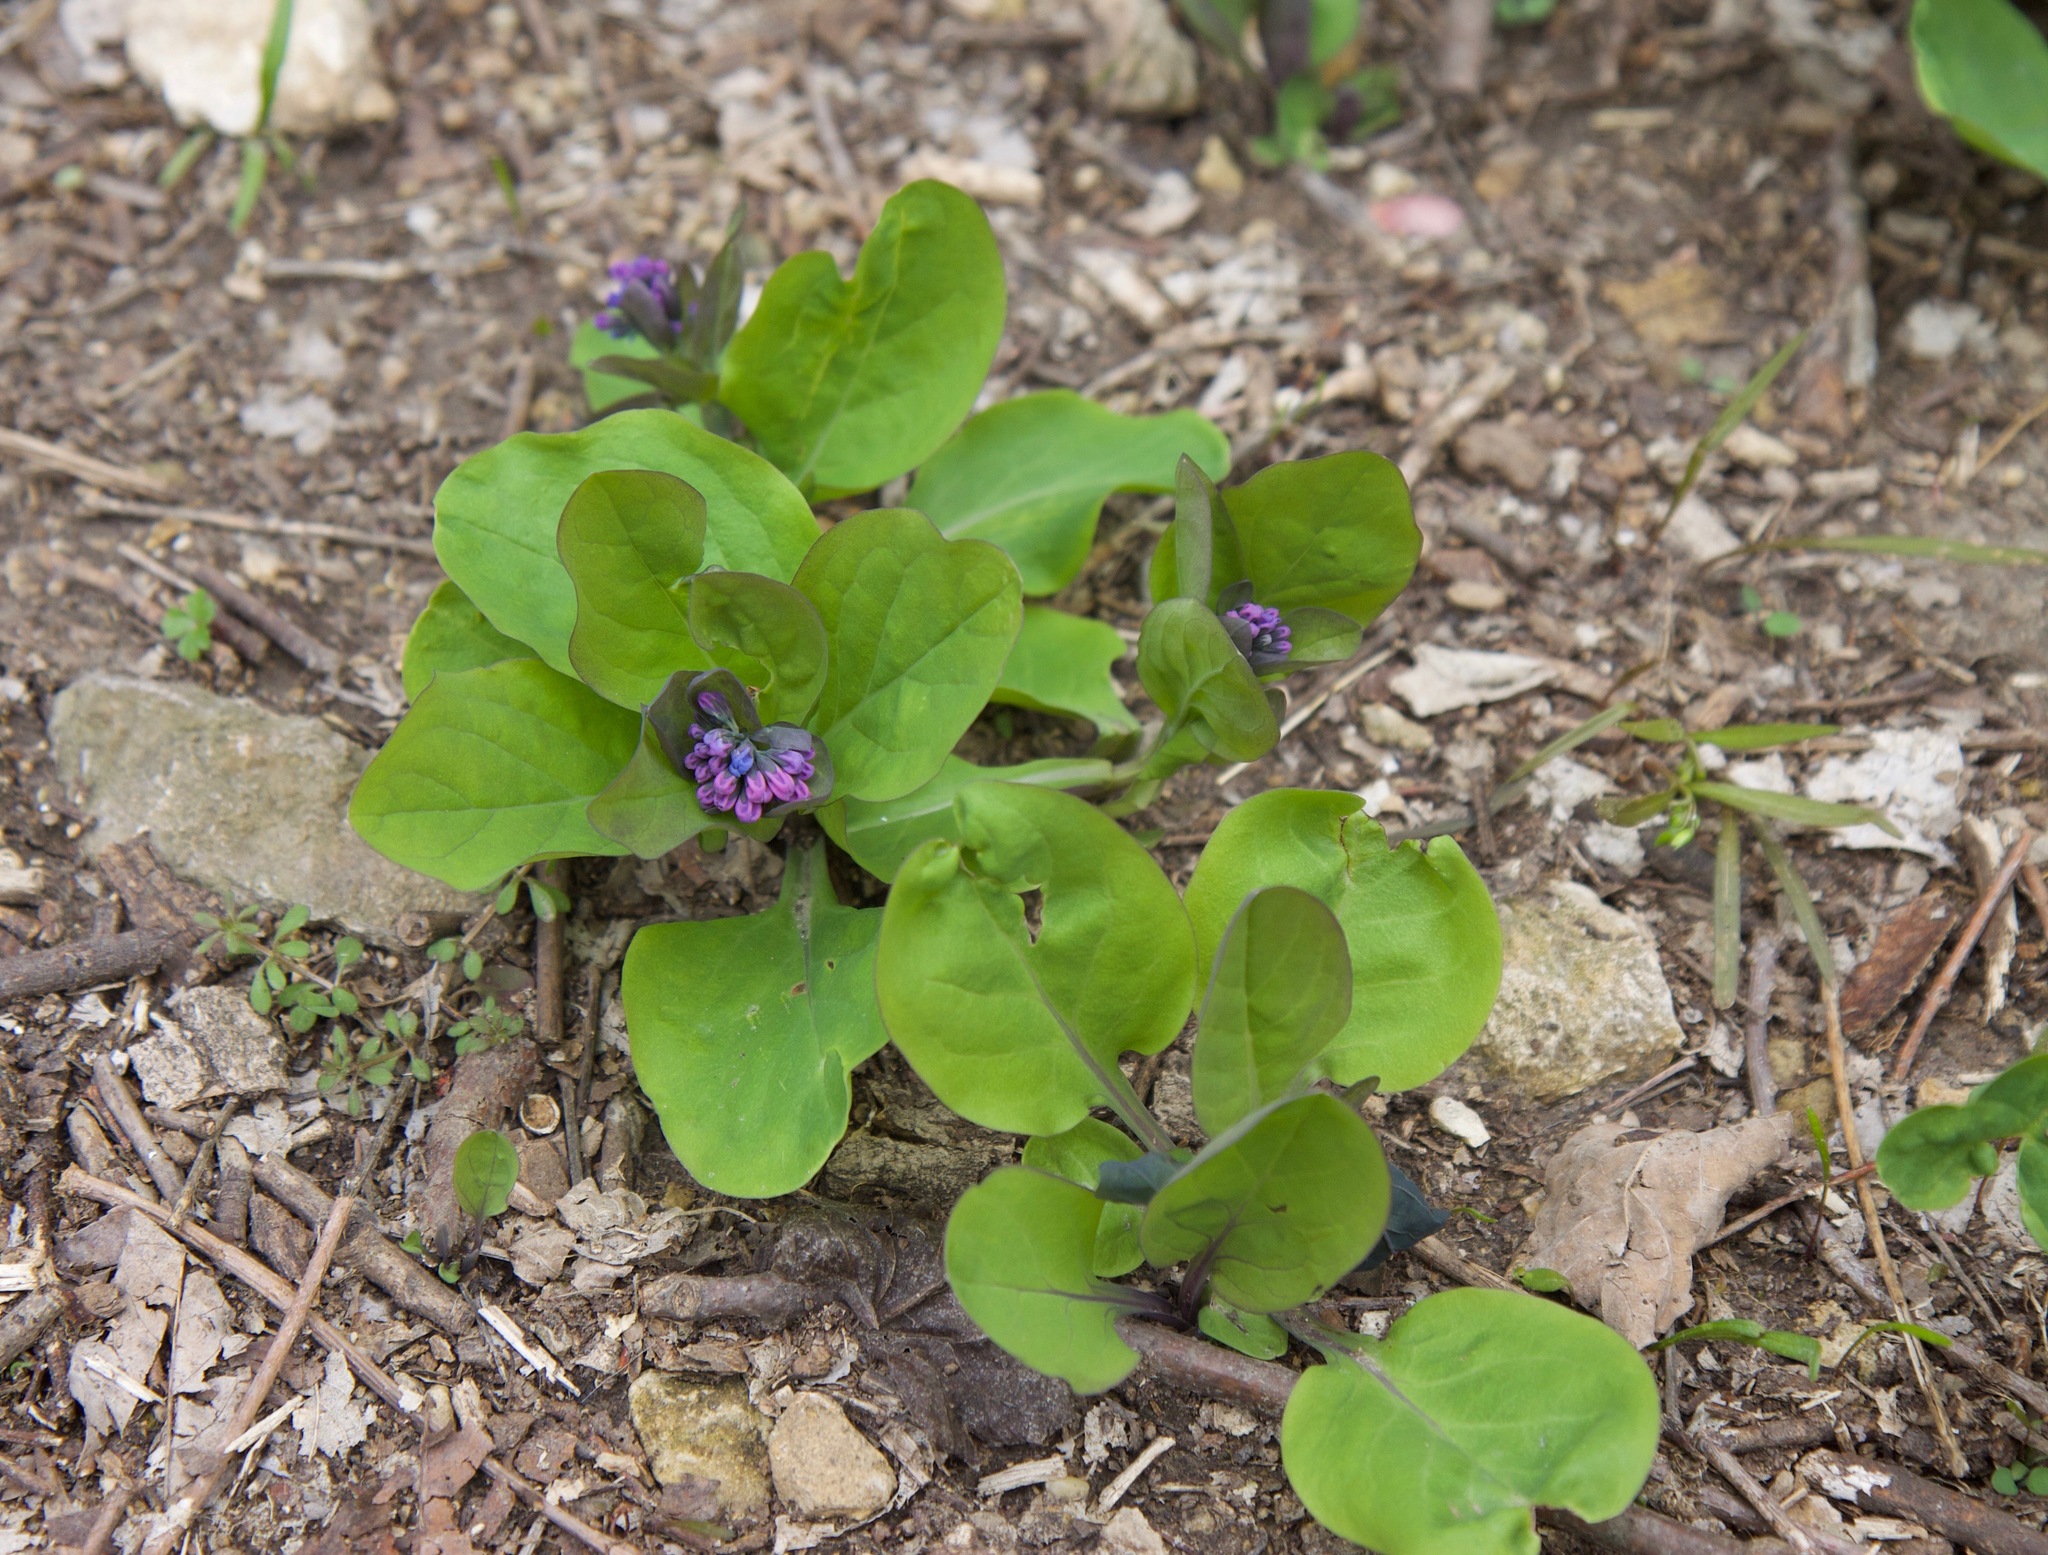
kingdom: Plantae
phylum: Tracheophyta
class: Magnoliopsida
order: Boraginales
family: Boraginaceae
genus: Mertensia
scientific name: Mertensia virginica
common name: Virginia bluebells
